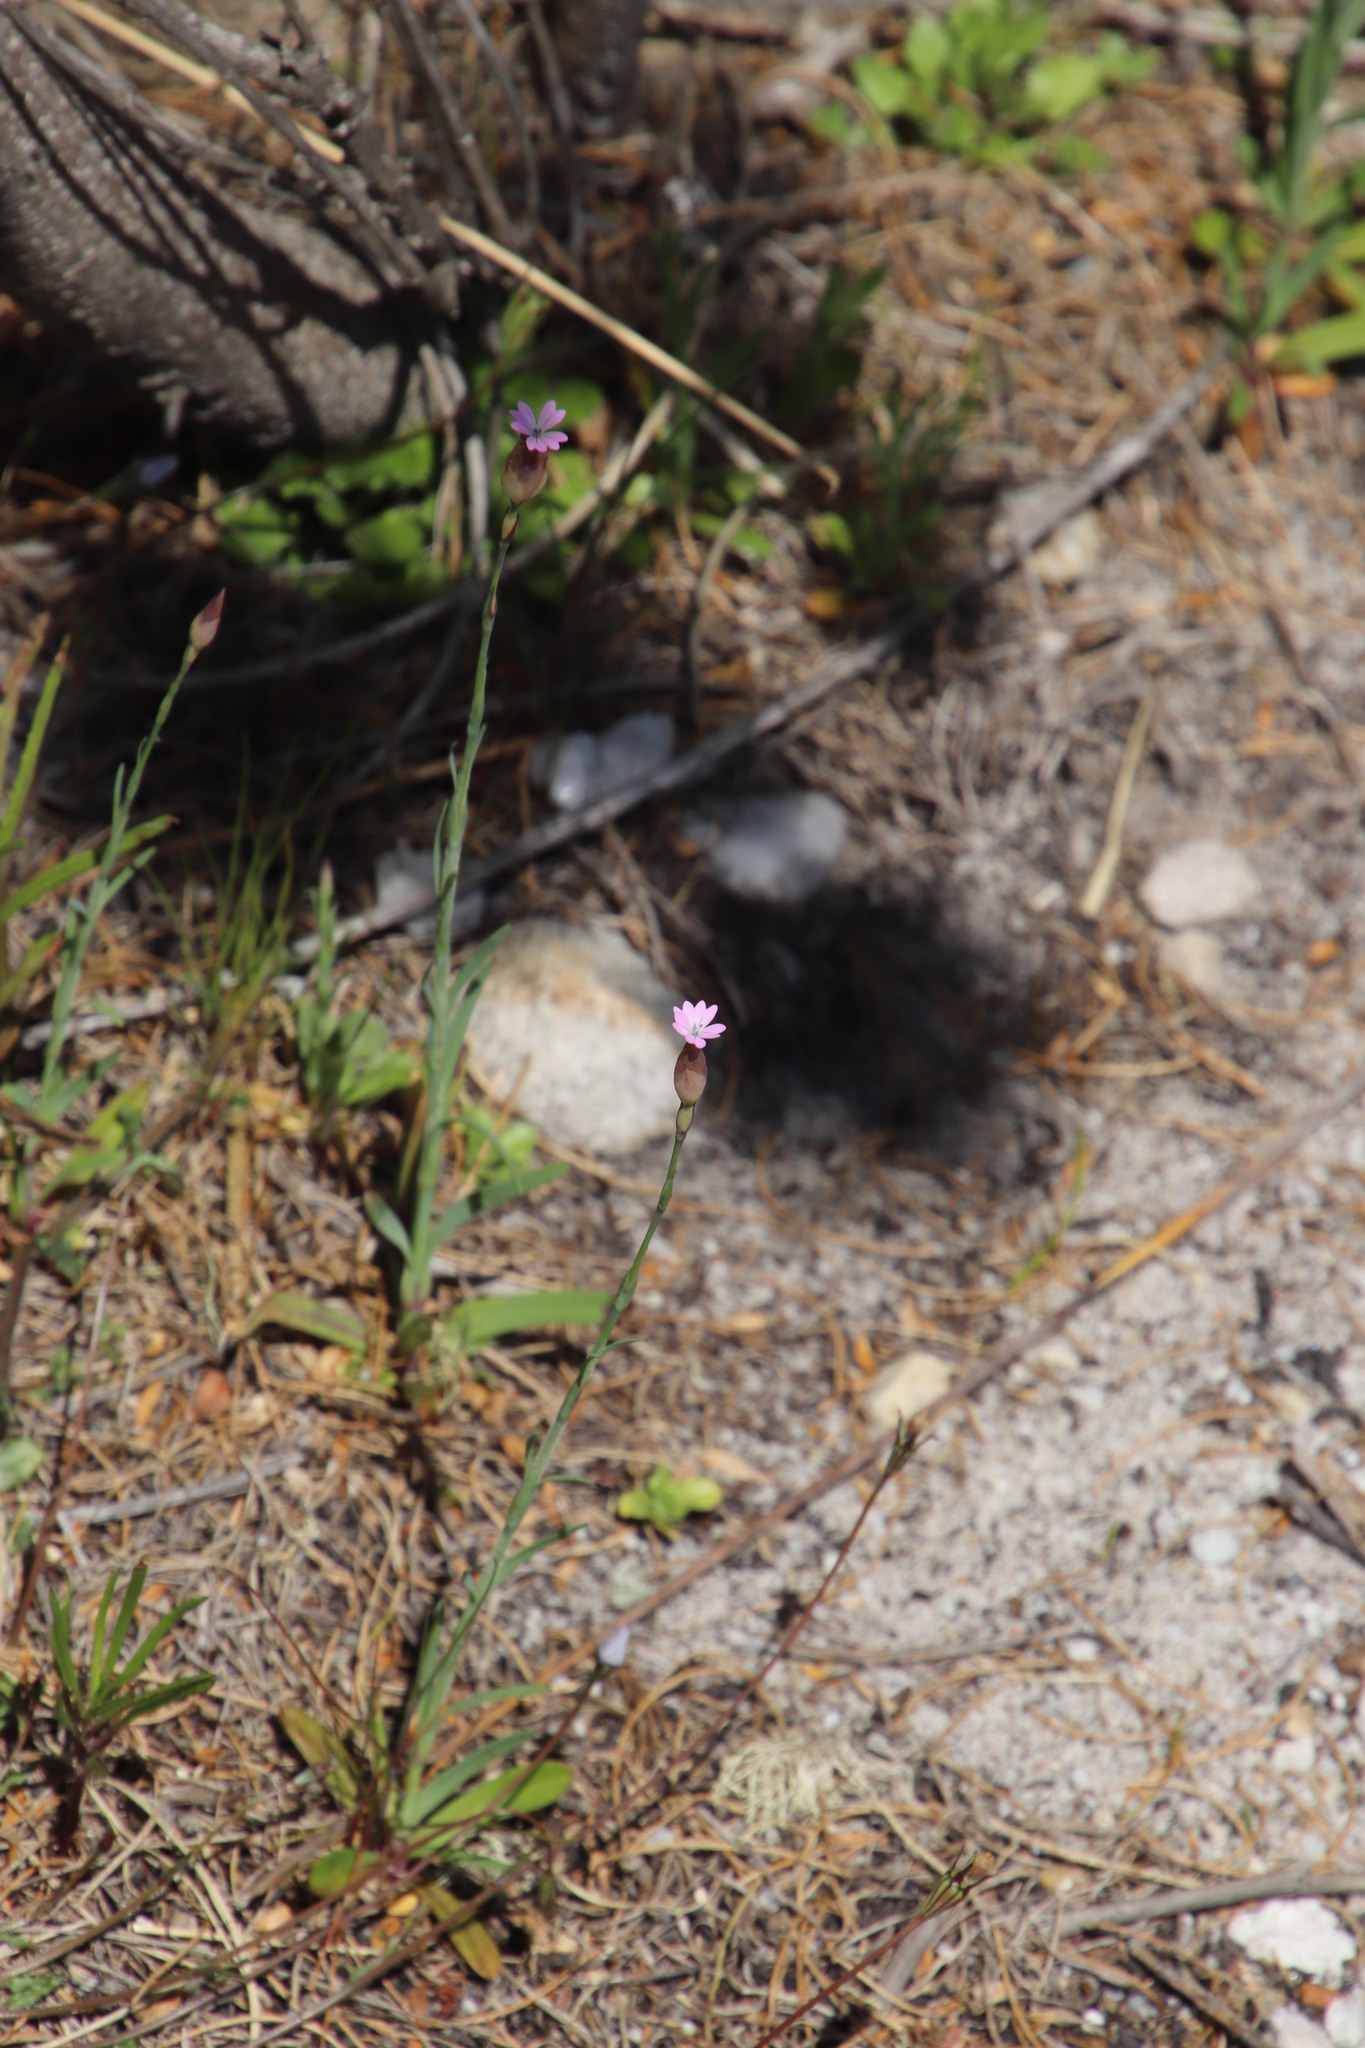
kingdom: Plantae
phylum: Tracheophyta
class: Magnoliopsida
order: Caryophyllales
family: Caryophyllaceae
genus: Petrorhagia
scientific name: Petrorhagia prolifera
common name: Proliferous pink
